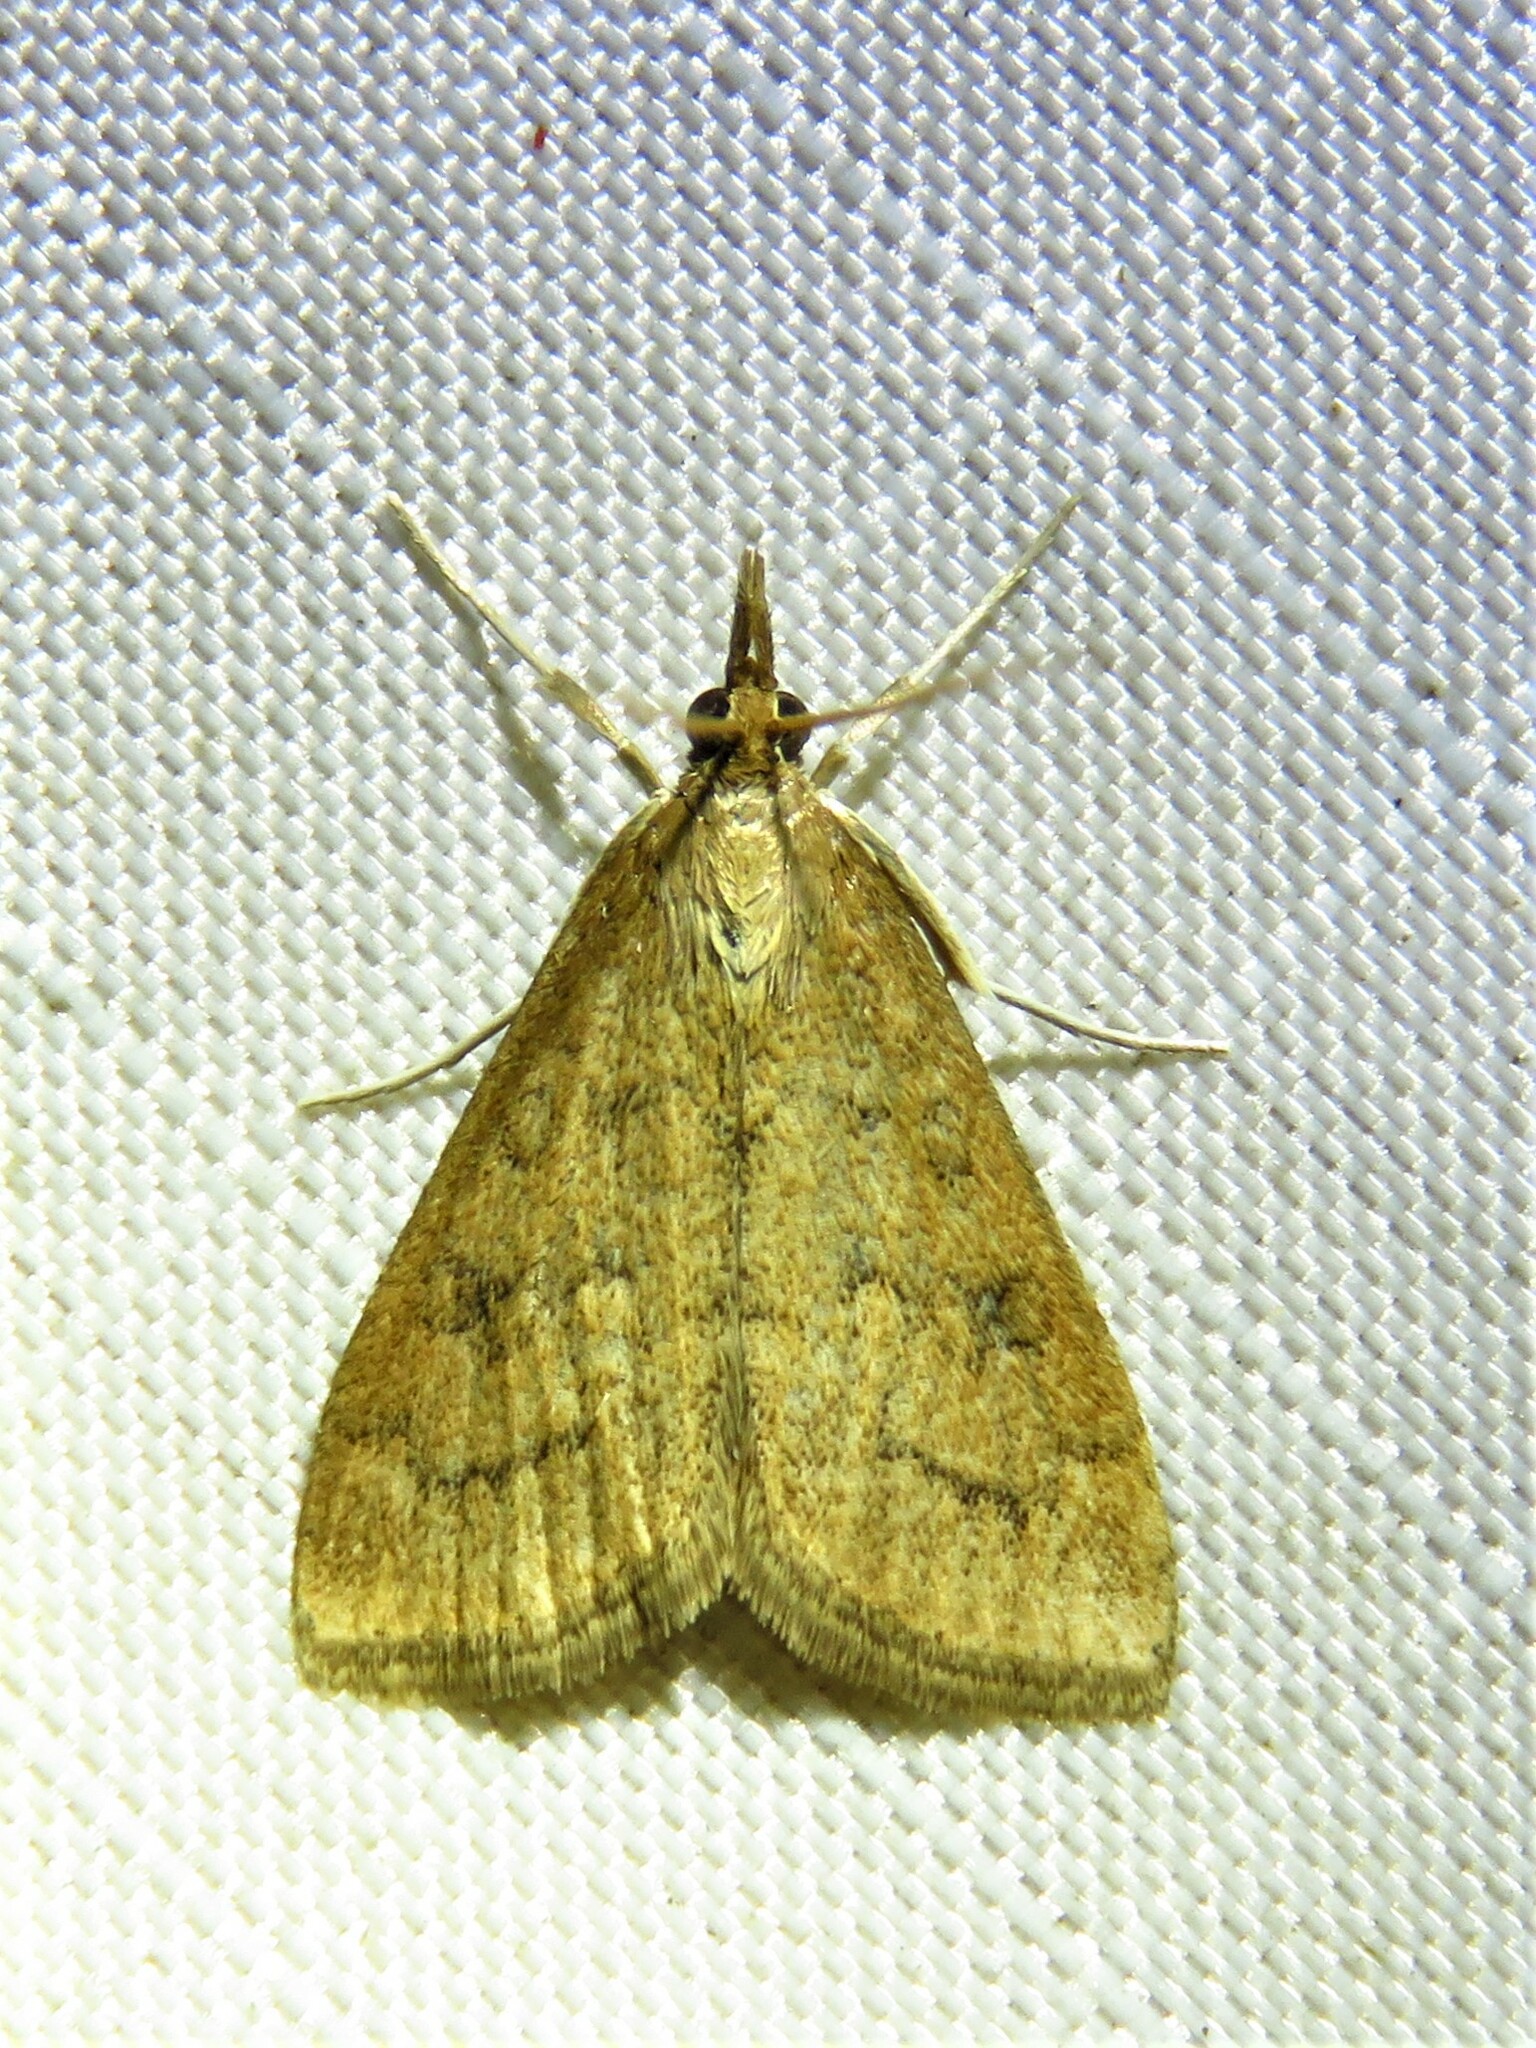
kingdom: Animalia
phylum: Arthropoda
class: Insecta
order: Lepidoptera
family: Crambidae
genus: Udea
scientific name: Udea rubigalis
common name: Celery leaftier moth
